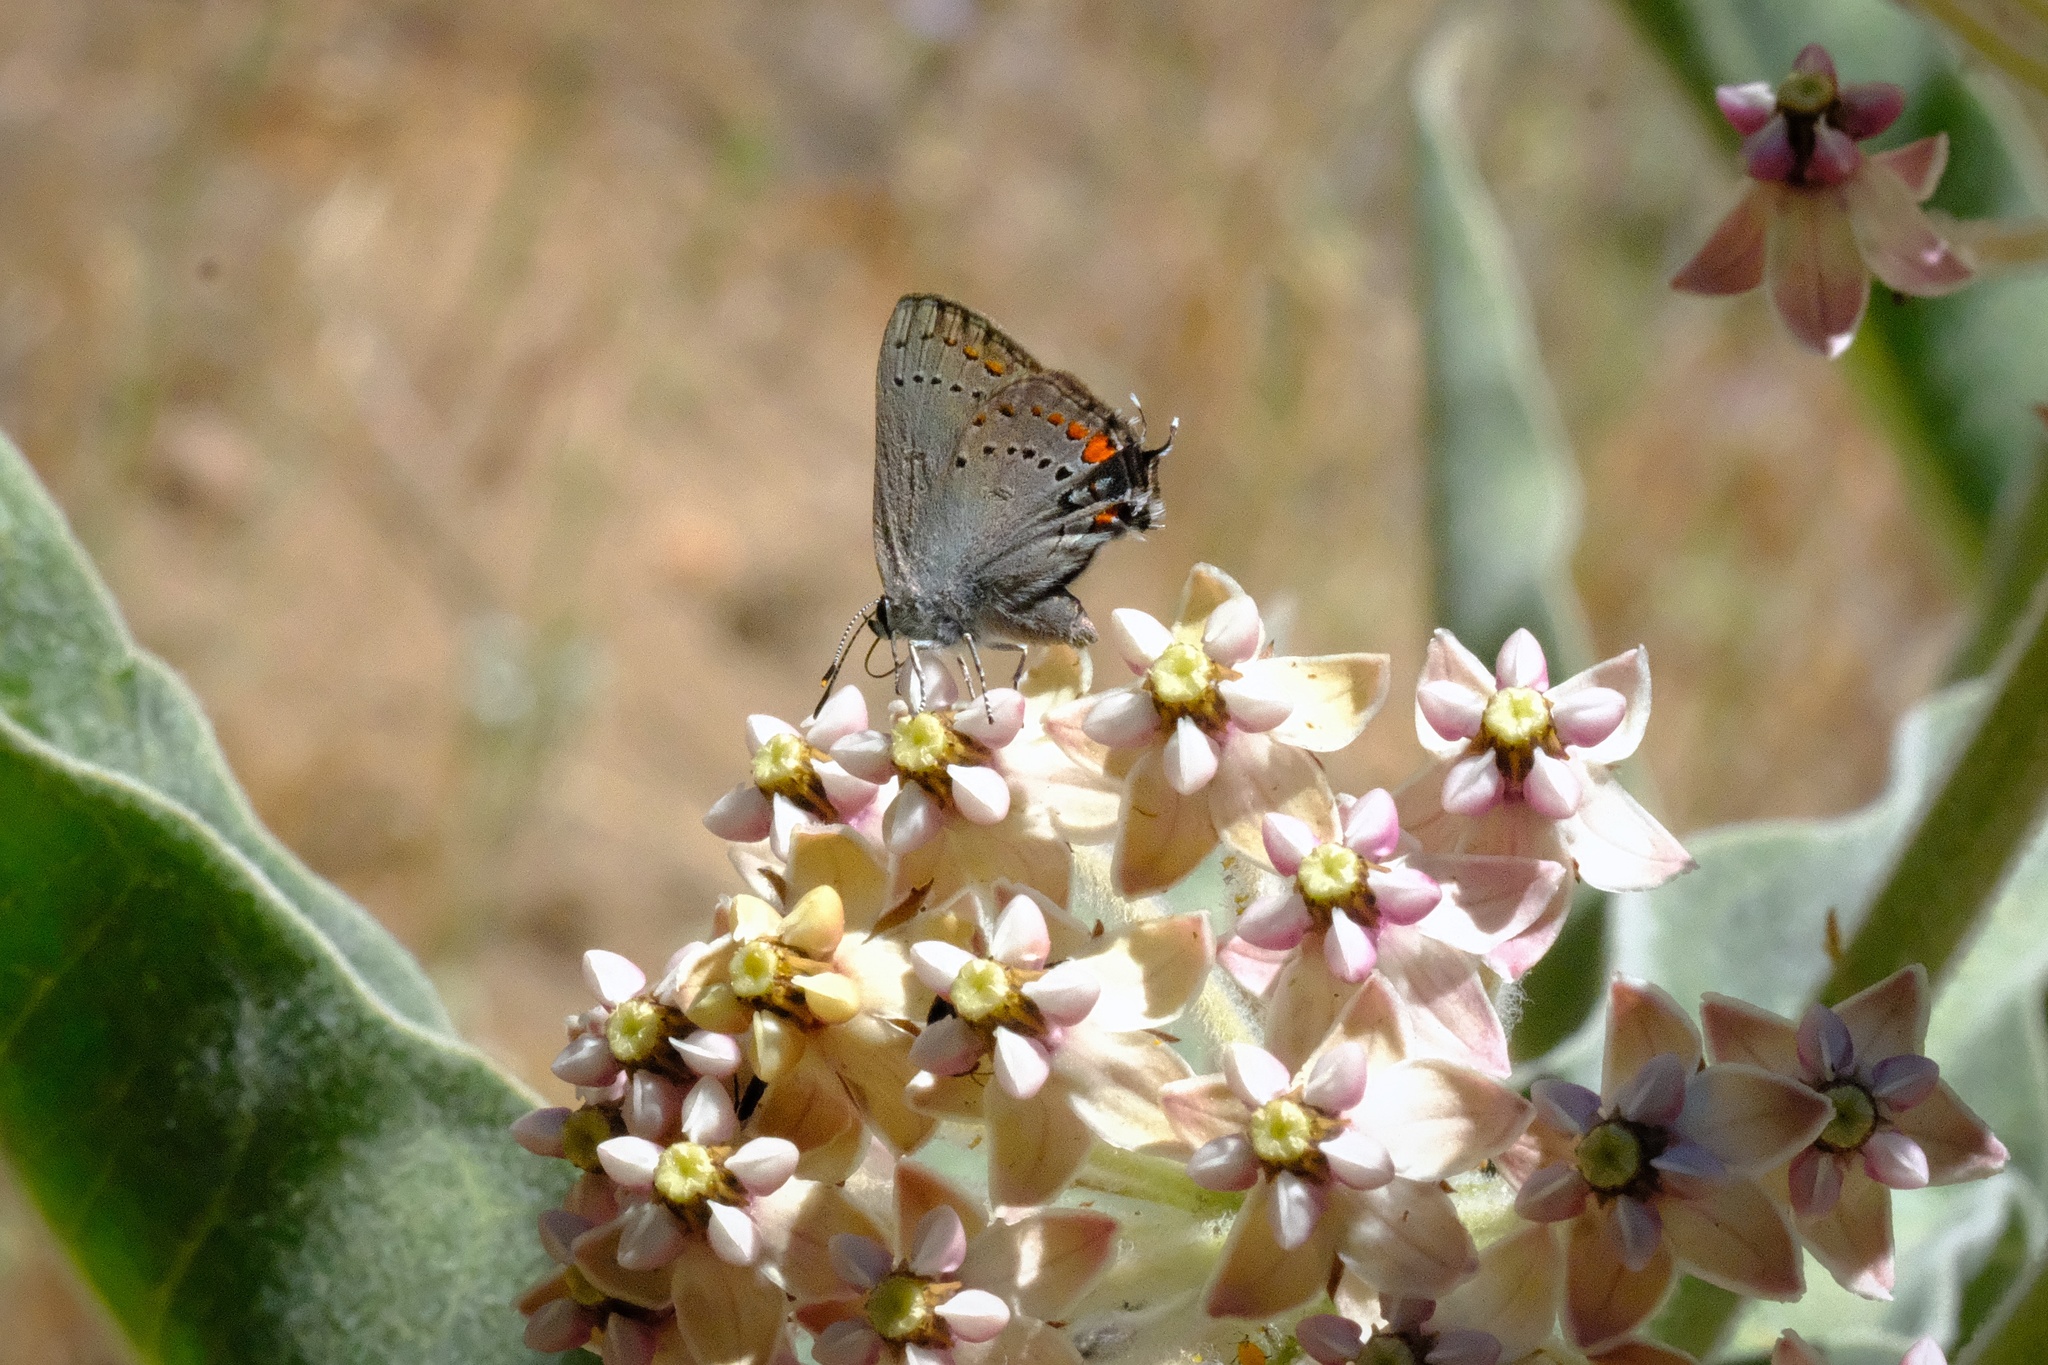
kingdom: Animalia
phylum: Arthropoda
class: Insecta
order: Lepidoptera
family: Lycaenidae
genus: Strymon
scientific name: Strymon acadica
